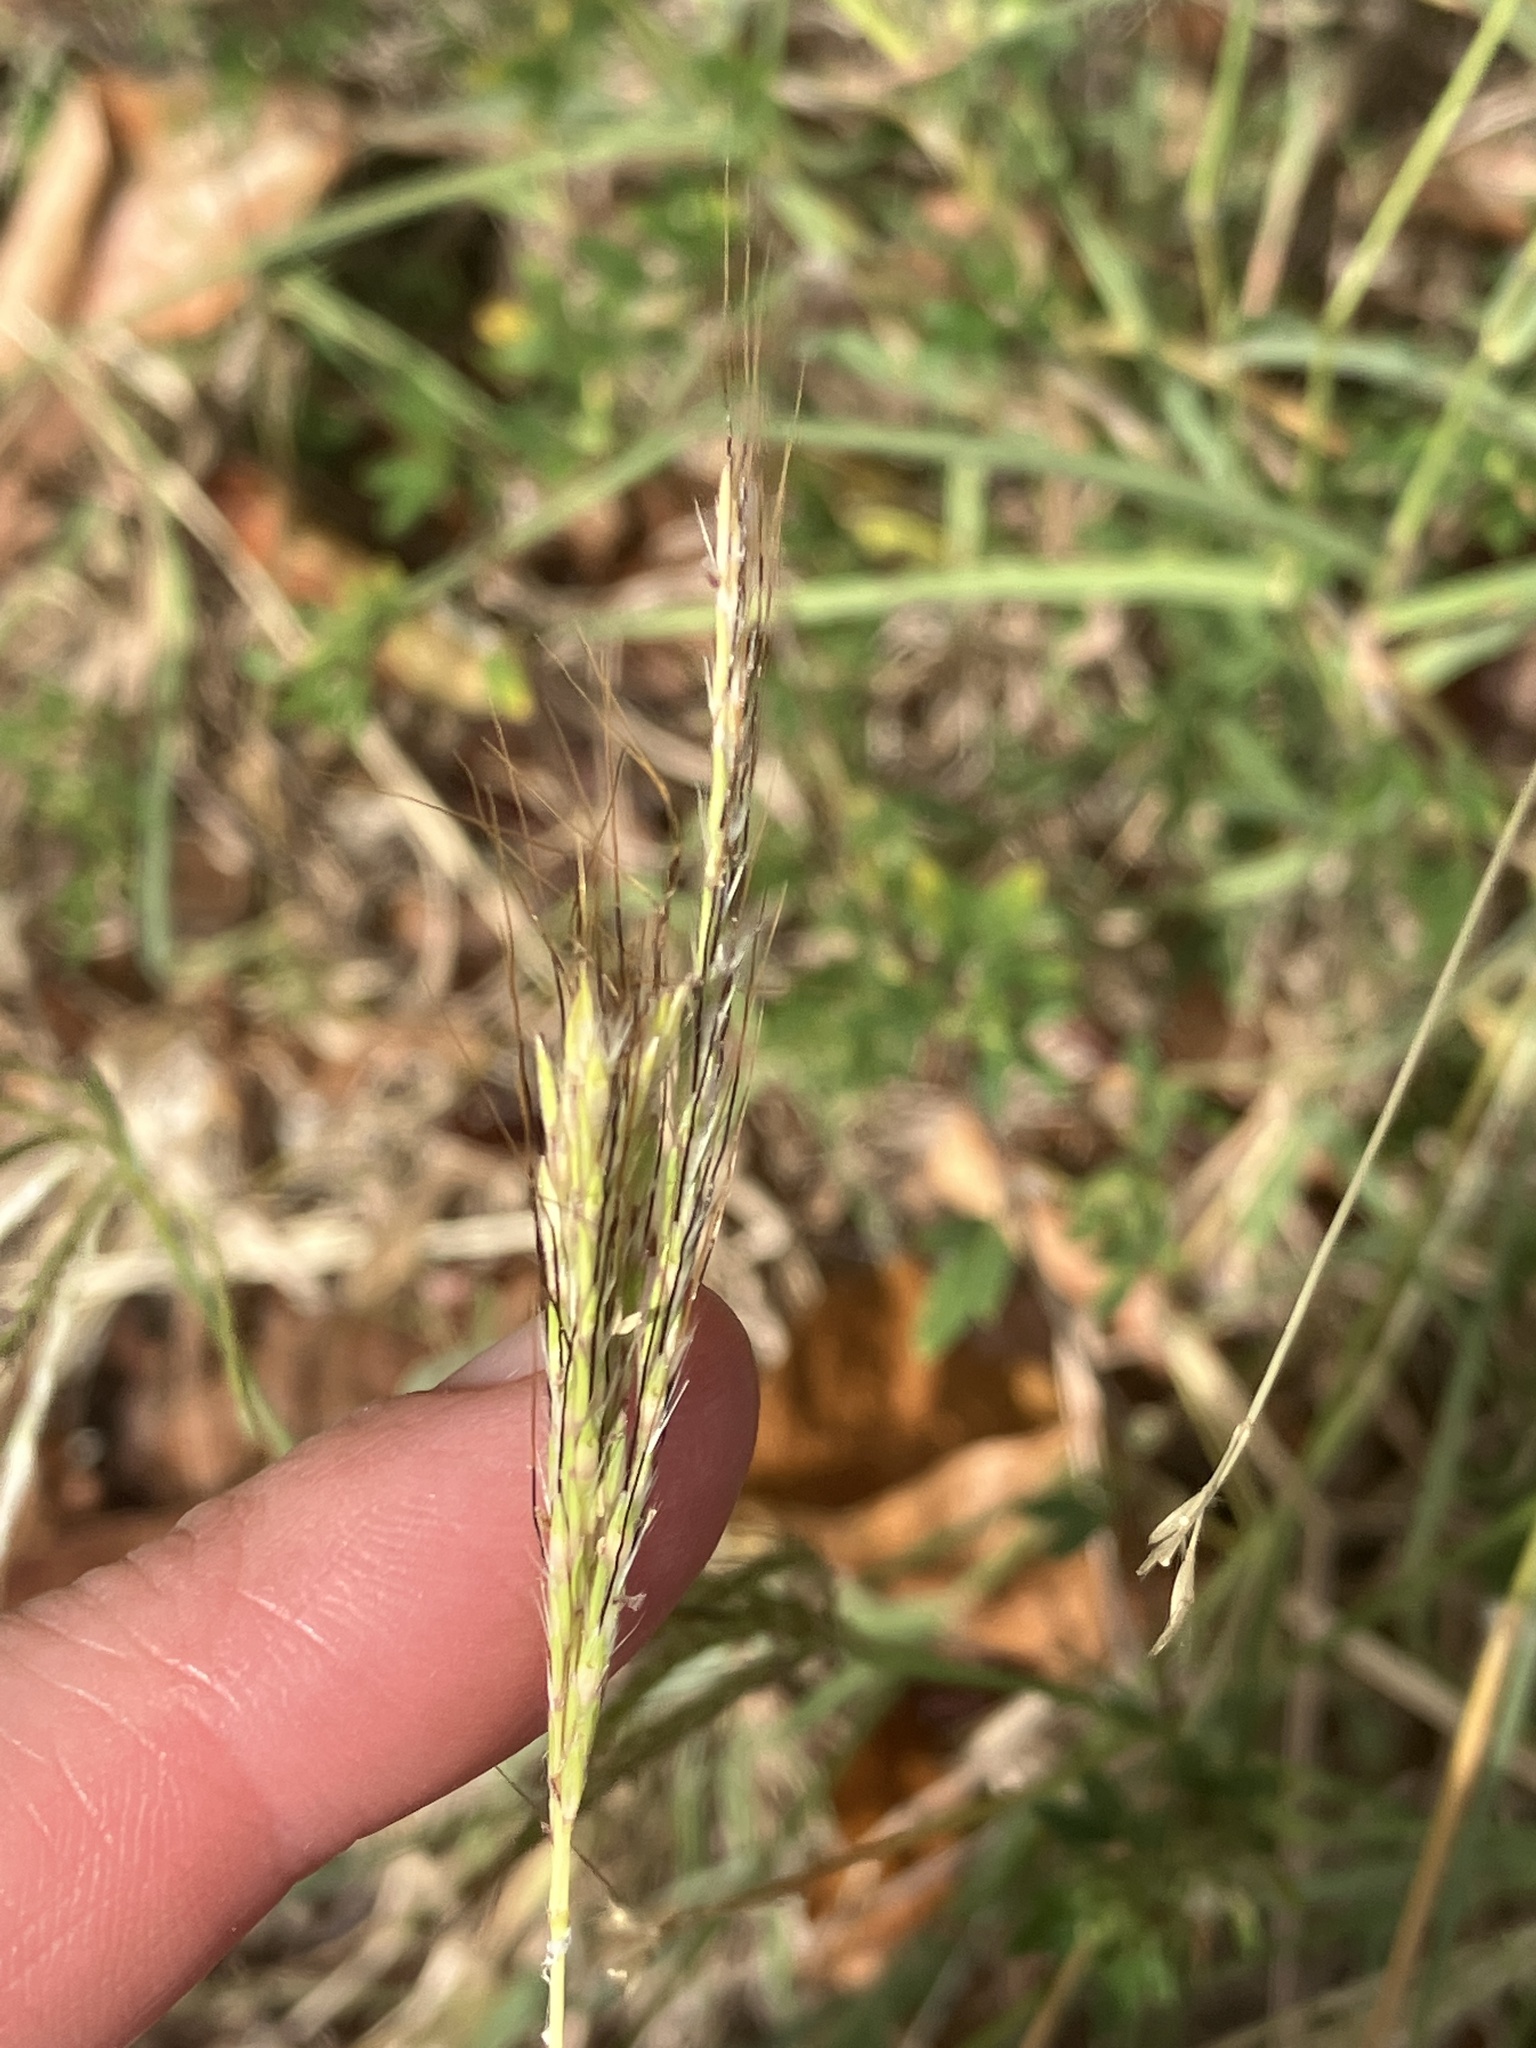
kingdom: Plantae
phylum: Tracheophyta
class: Liliopsida
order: Poales
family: Poaceae
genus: Dichanthium
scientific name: Dichanthium annulatum
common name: Kleberg's bluestem
